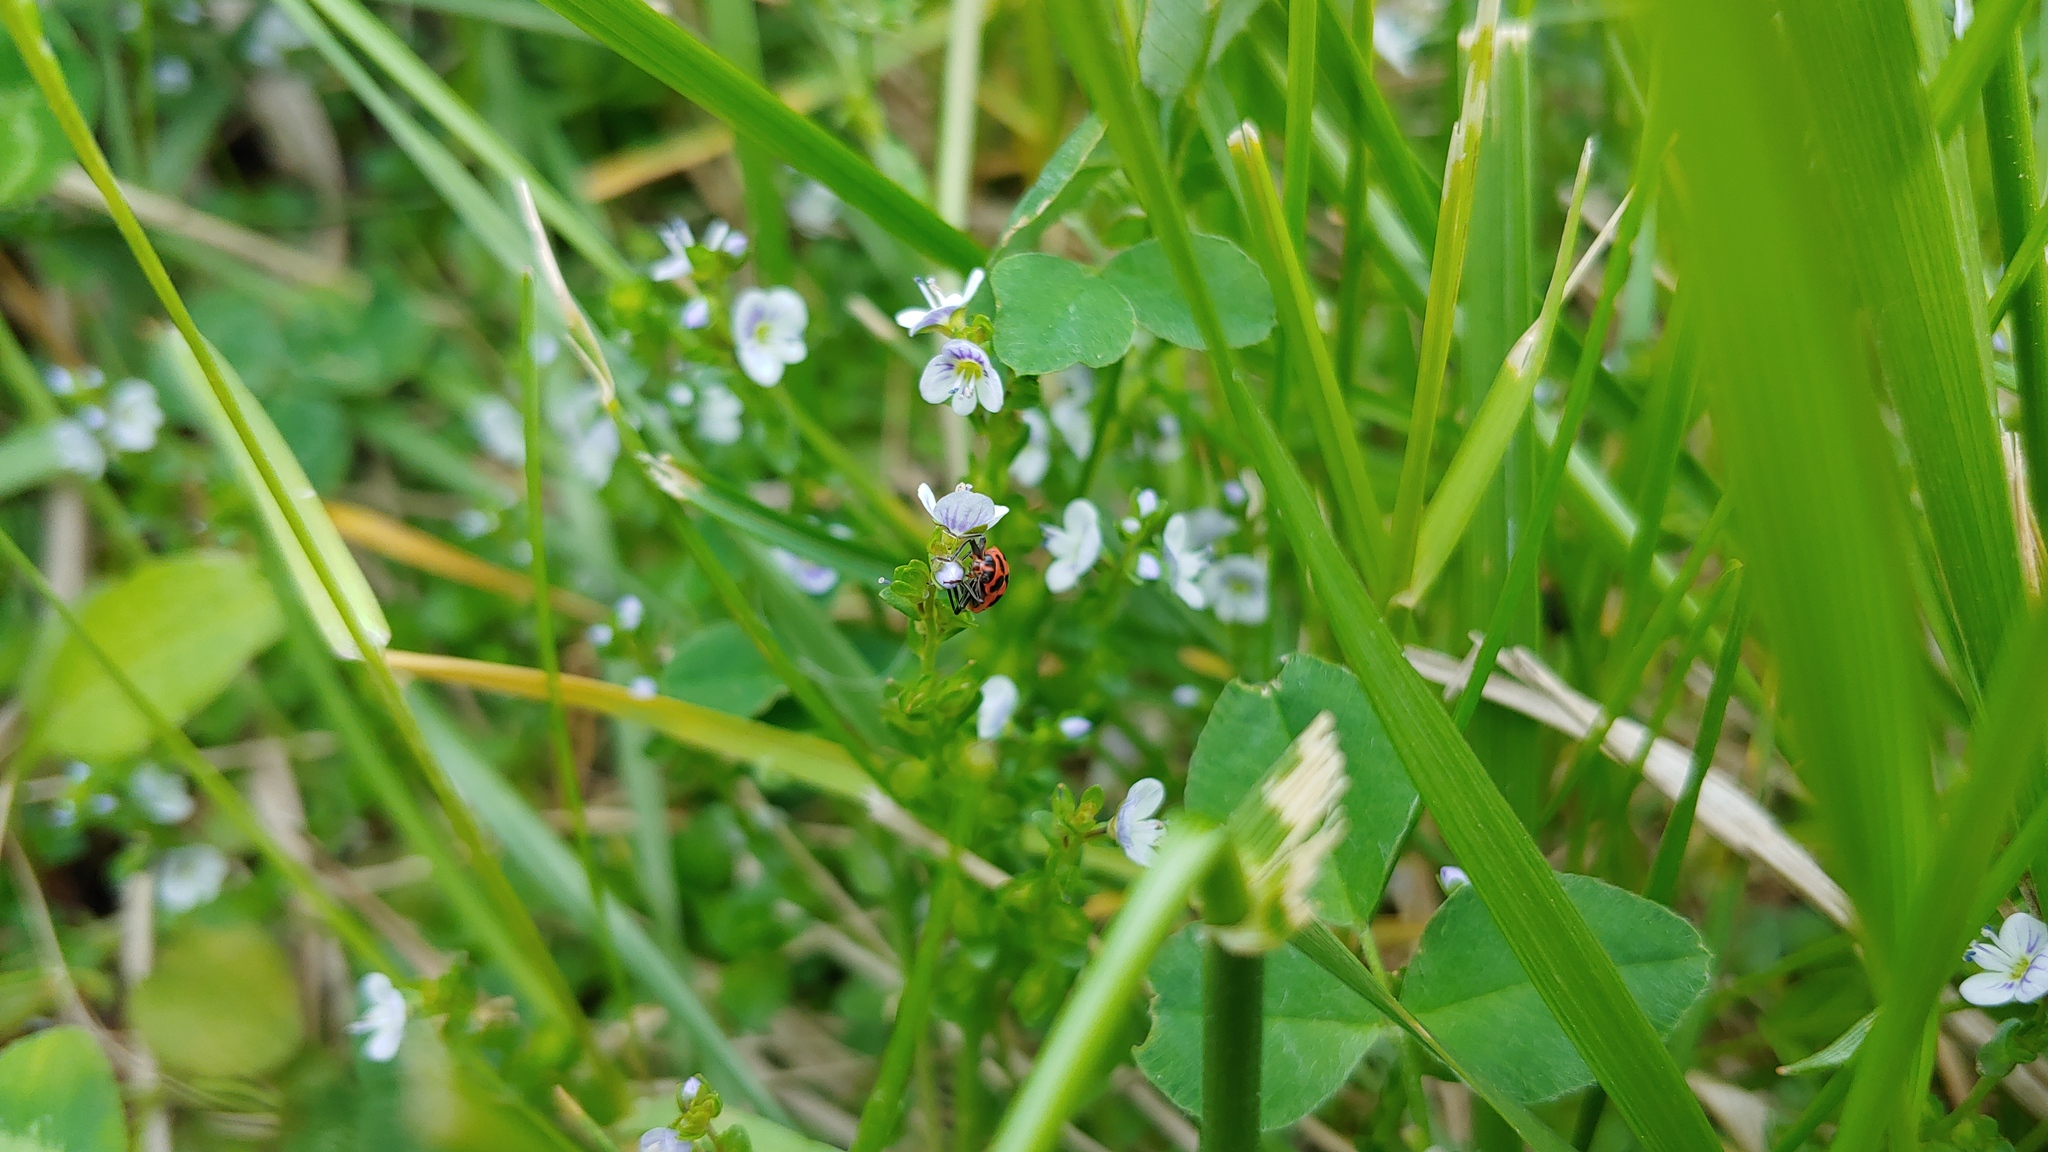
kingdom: Animalia
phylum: Arthropoda
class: Insecta
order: Coleoptera
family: Coccinellidae
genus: Coleomegilla
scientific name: Coleomegilla maculata
